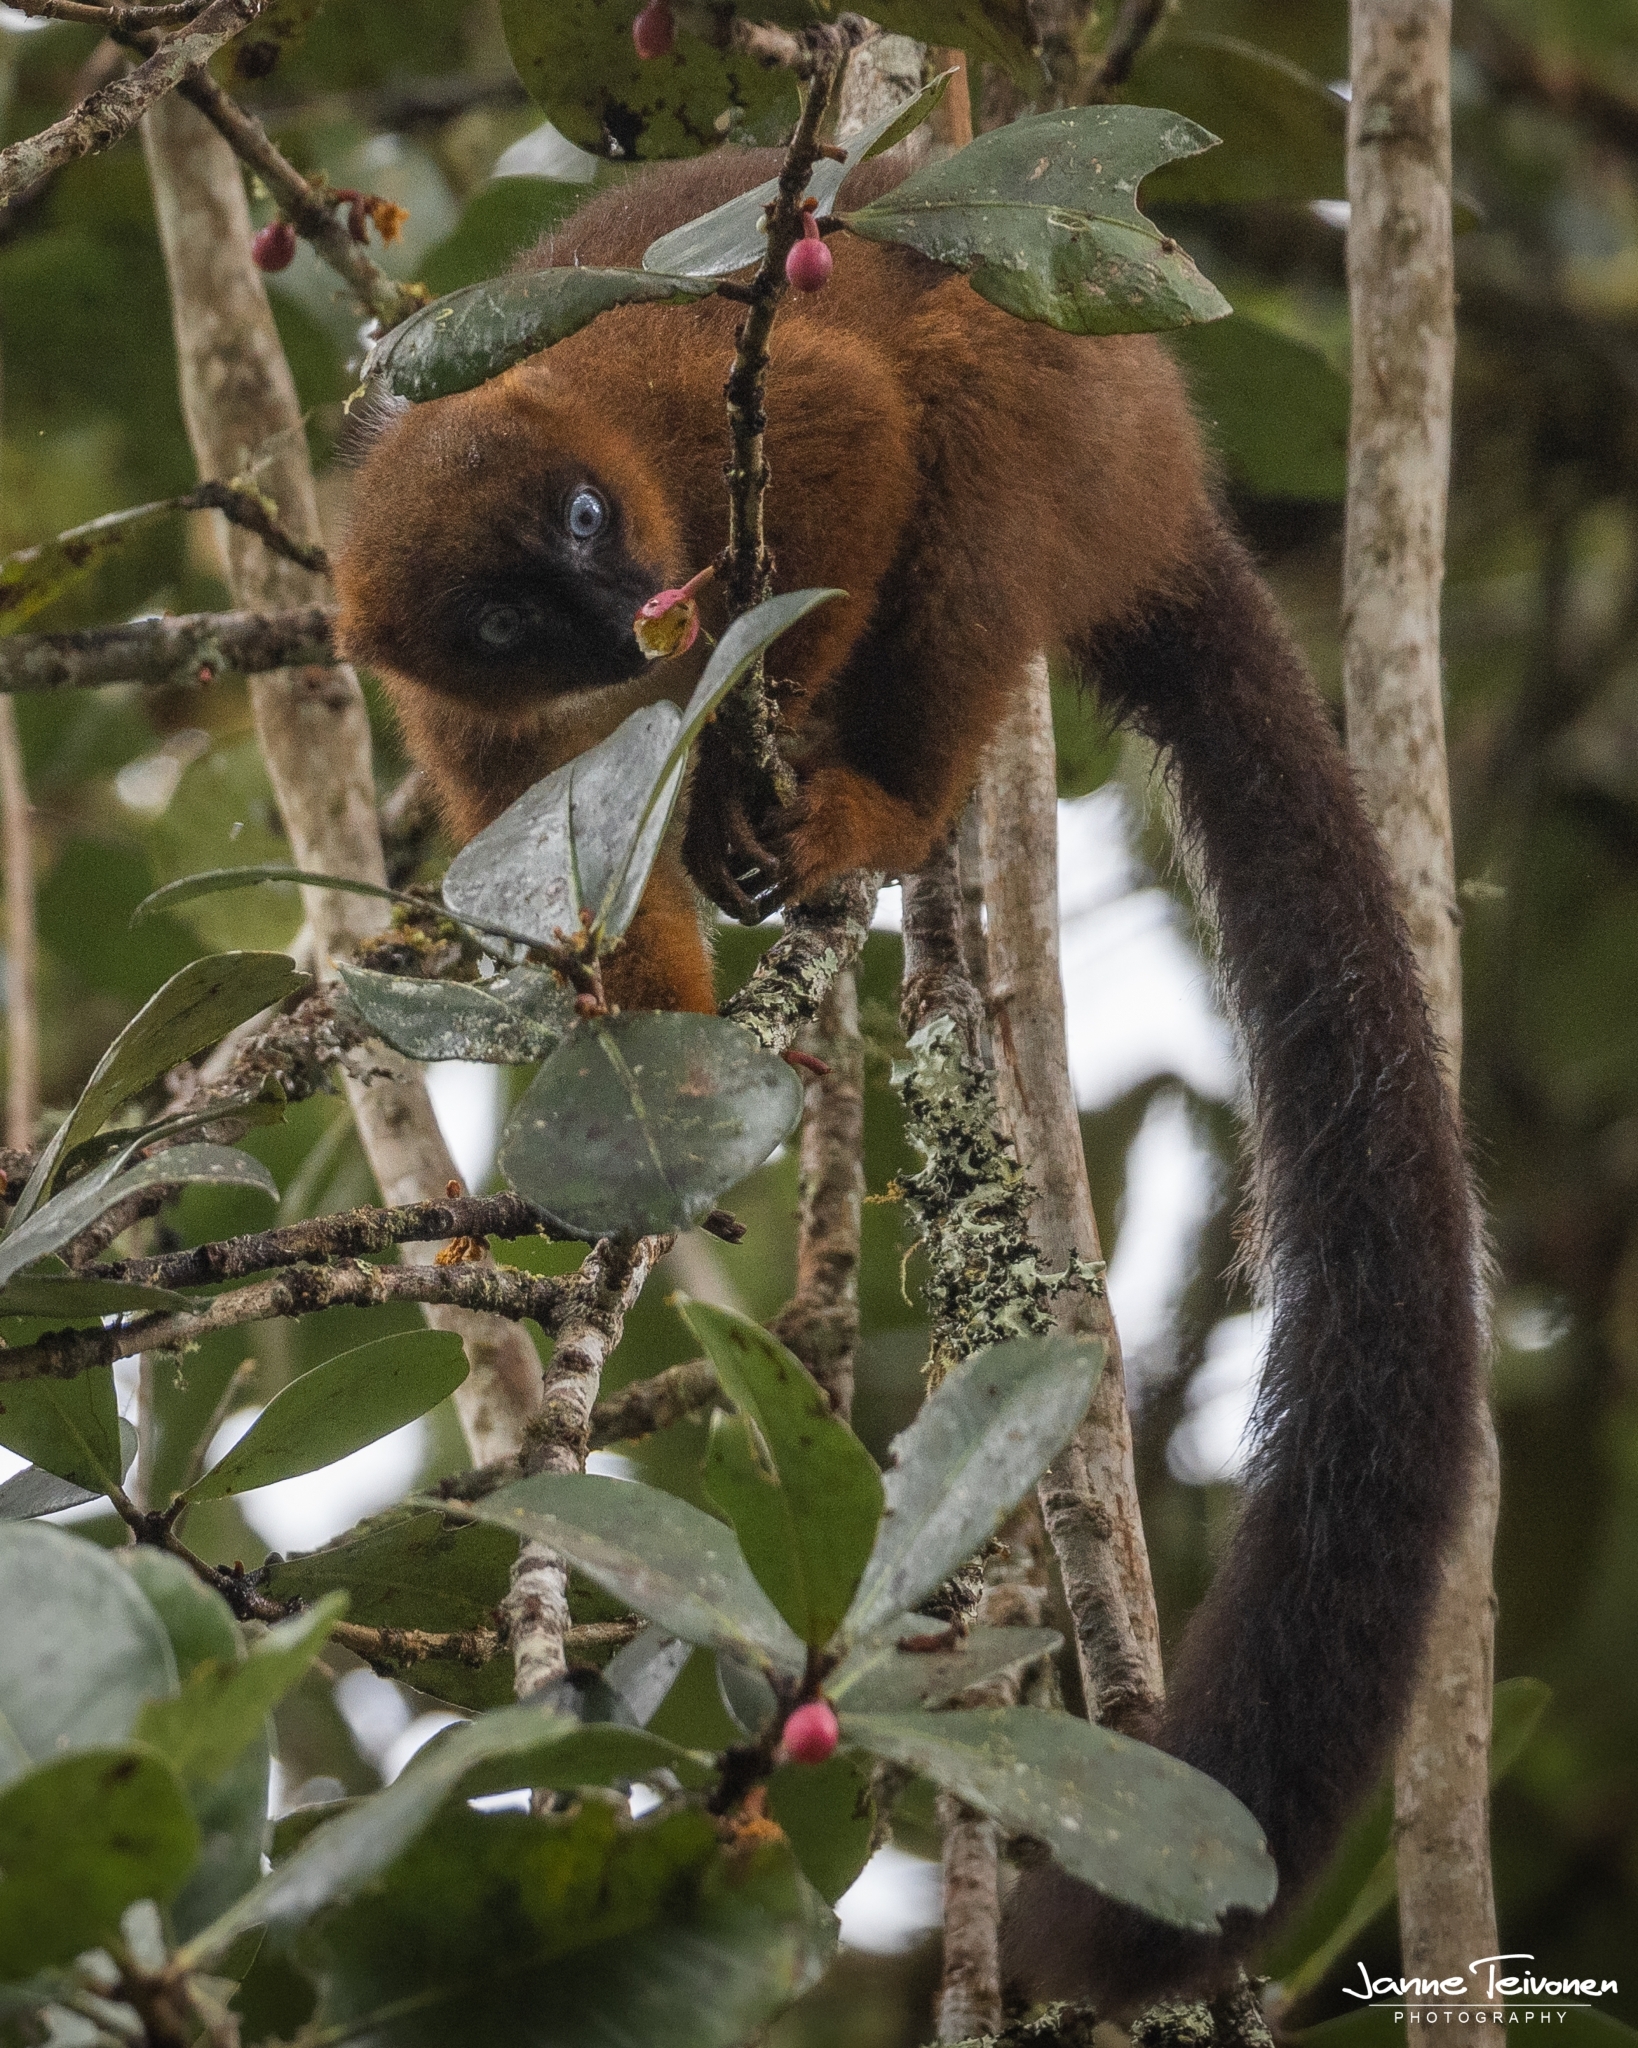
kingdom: Animalia
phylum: Chordata
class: Mammalia
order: Primates
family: Lemuridae
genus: Eulemur
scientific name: Eulemur rubriventer
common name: Red-bellied lemur
